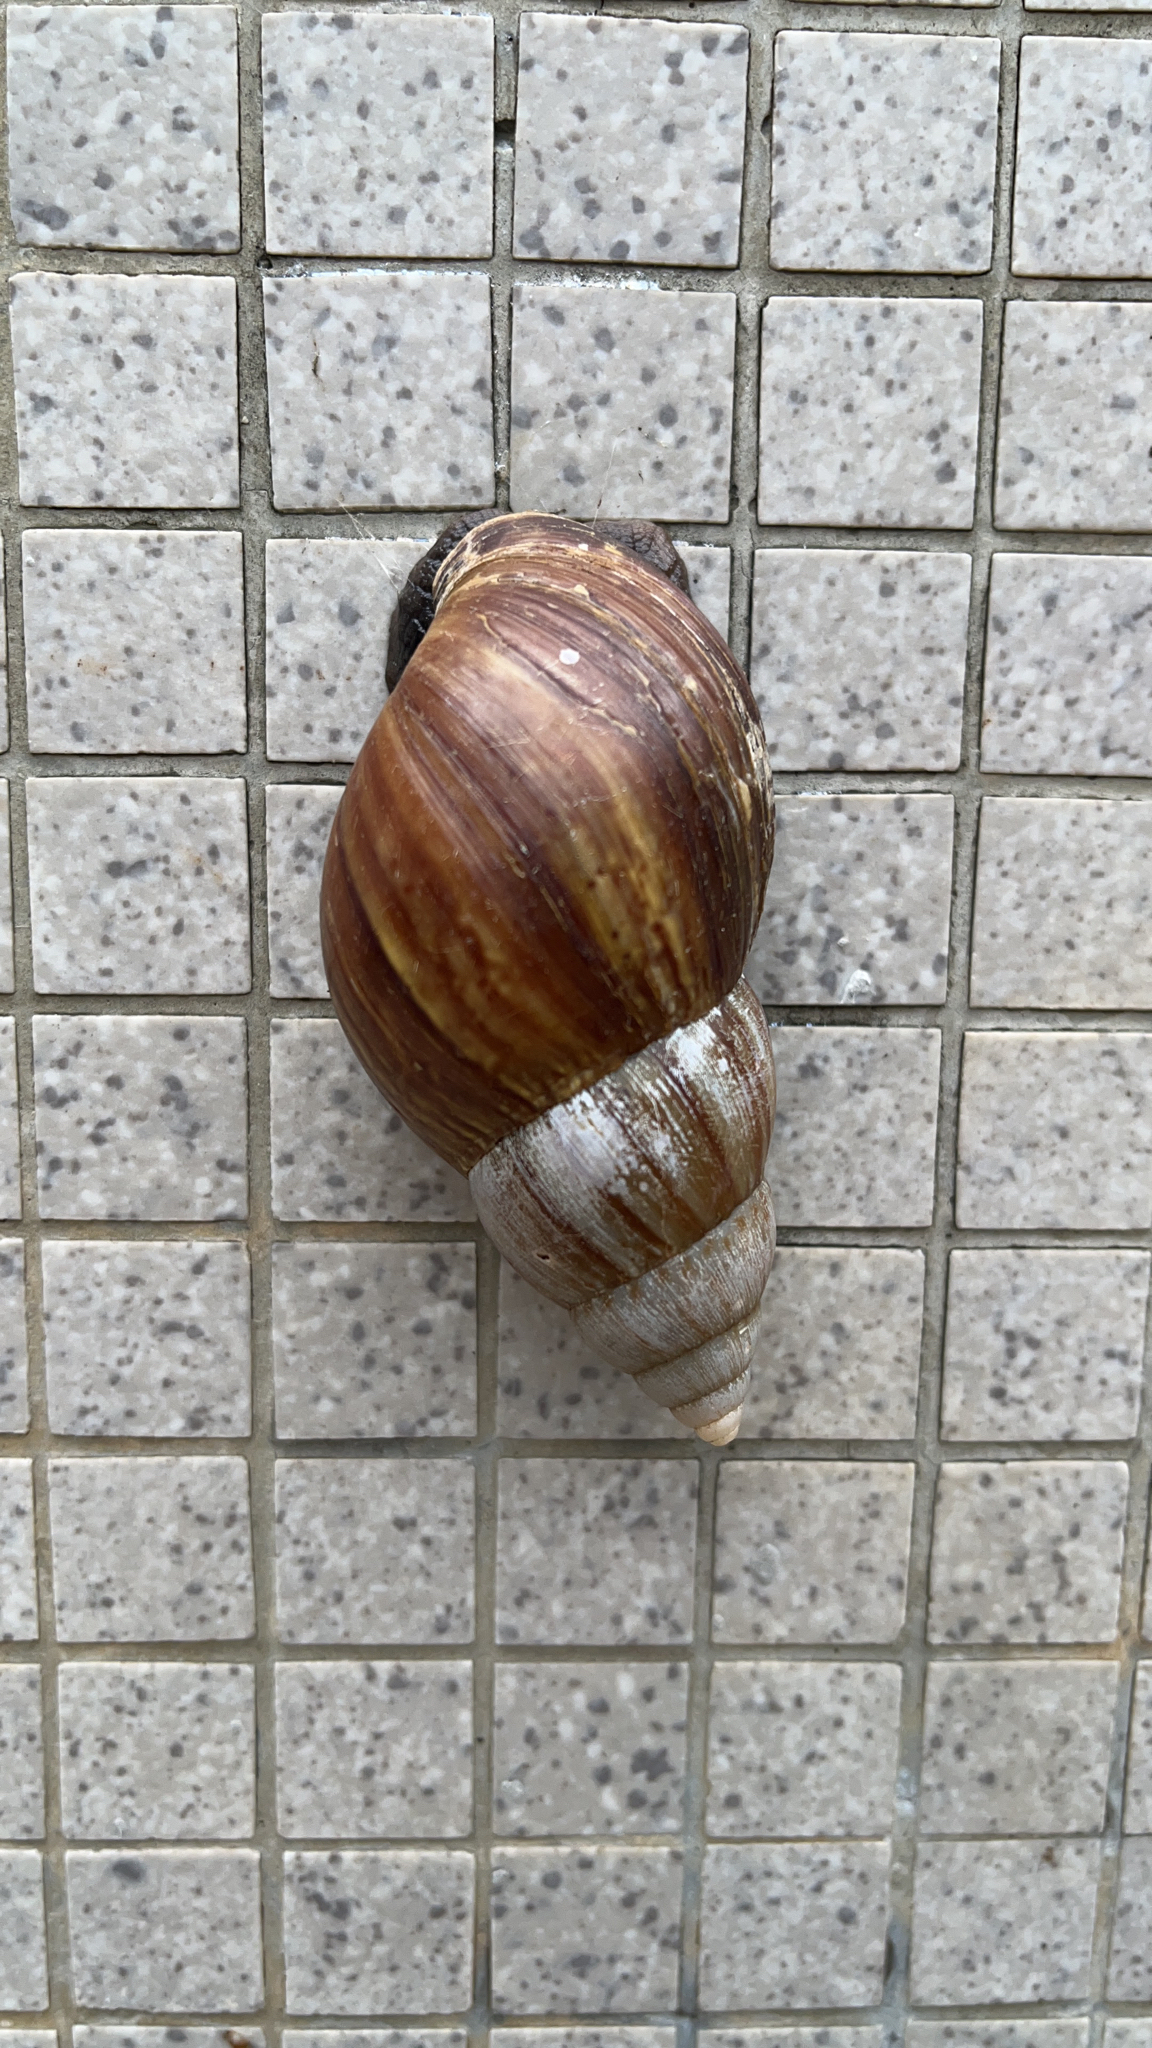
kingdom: Animalia
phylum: Mollusca
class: Gastropoda
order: Stylommatophora
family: Achatinidae
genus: Lissachatina
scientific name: Lissachatina fulica
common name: Giant african snail
